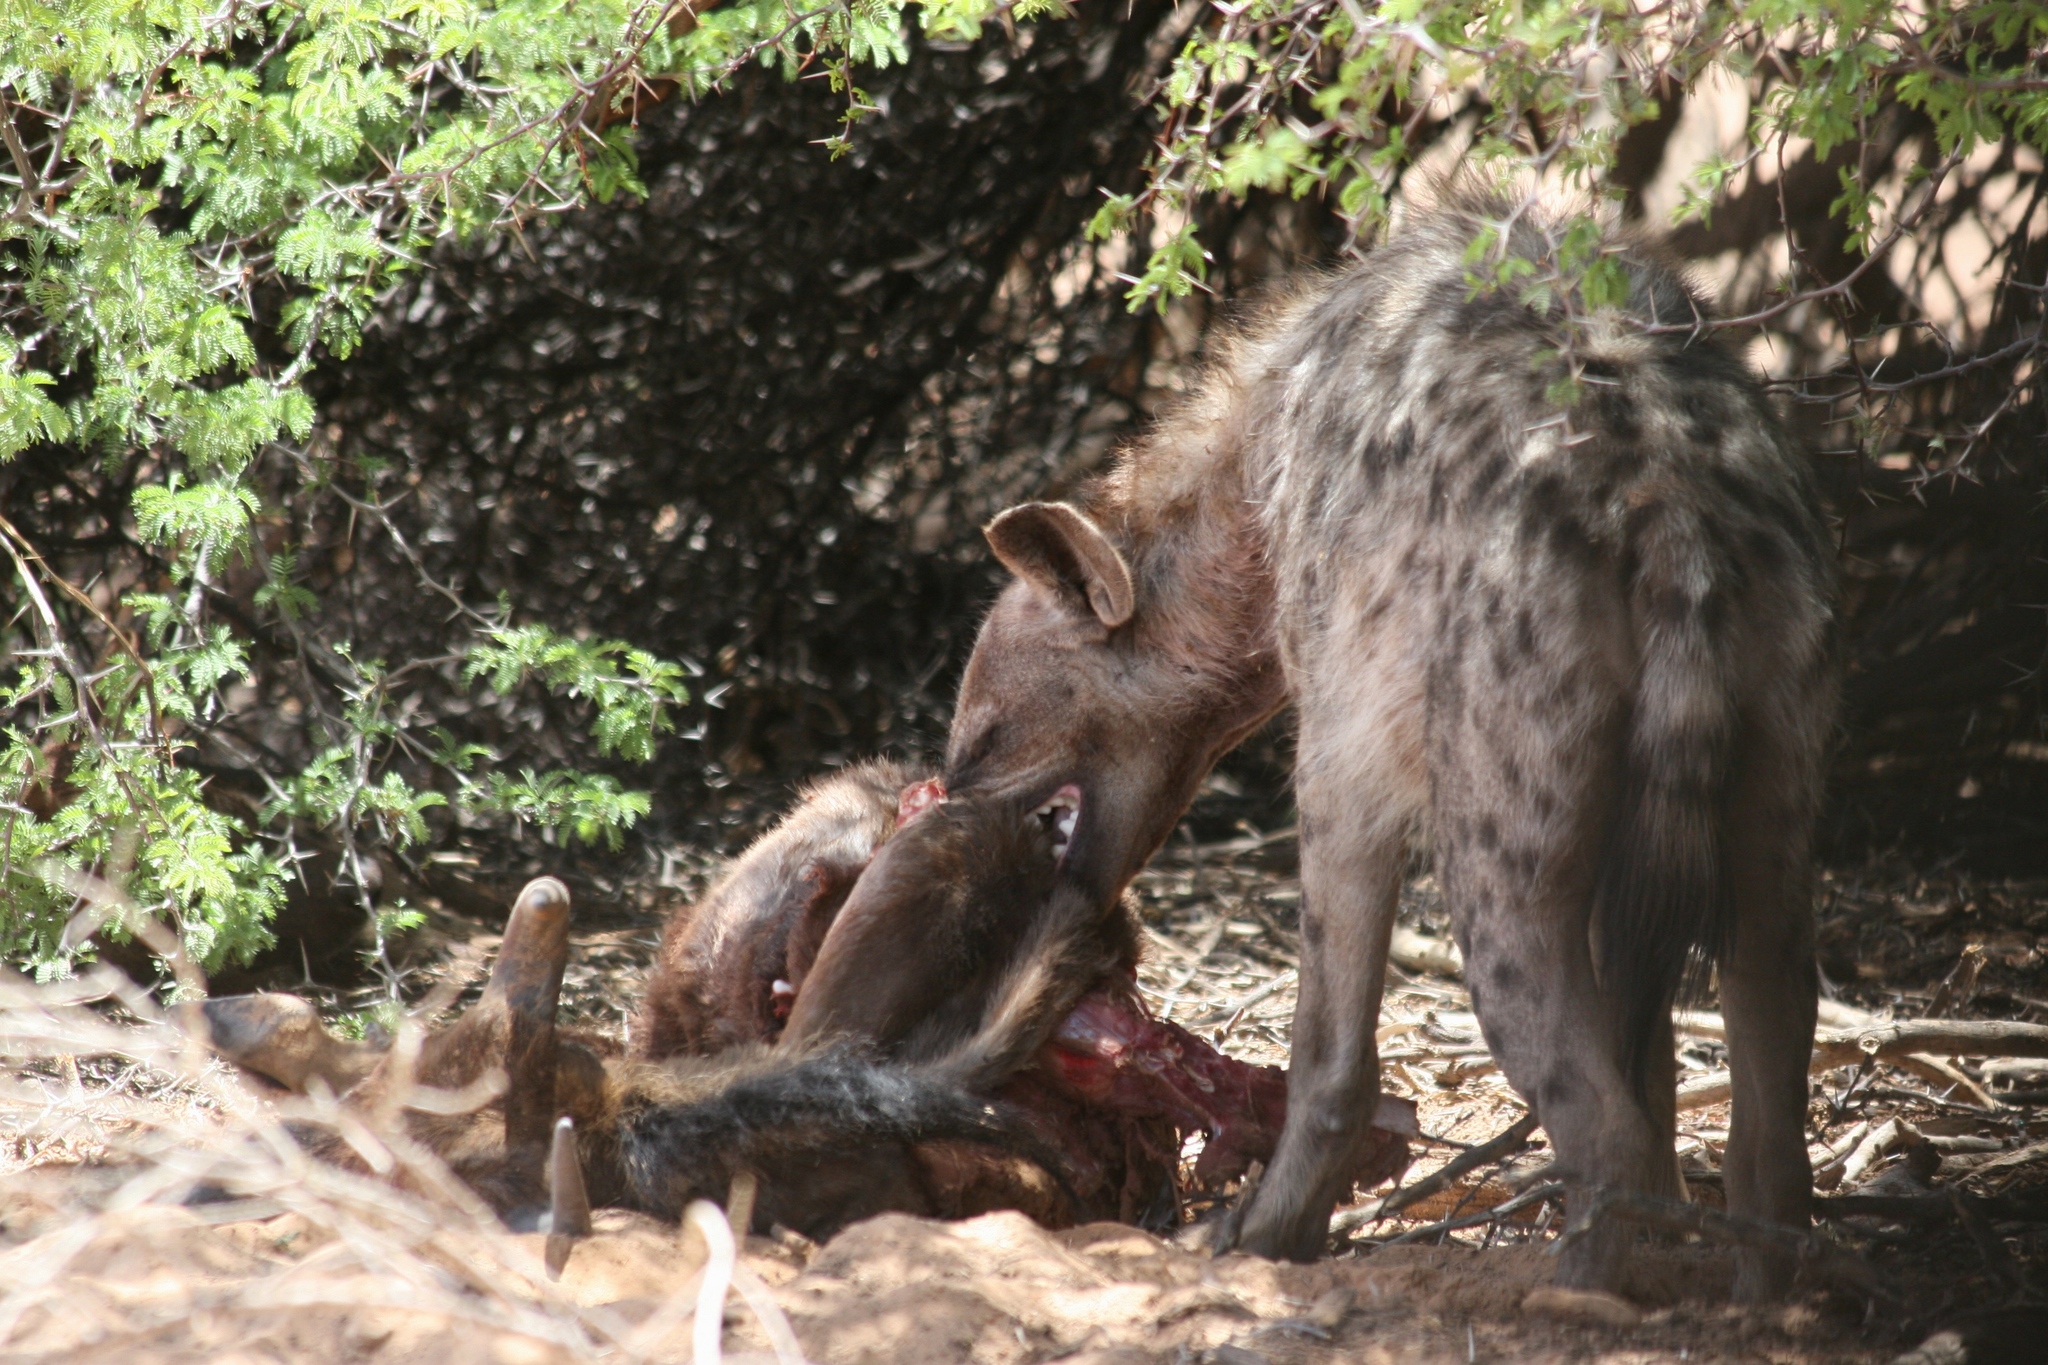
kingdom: Animalia
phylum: Chordata
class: Mammalia
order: Carnivora
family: Hyaenidae
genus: Crocuta
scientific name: Crocuta crocuta
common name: Spotted hyaena
